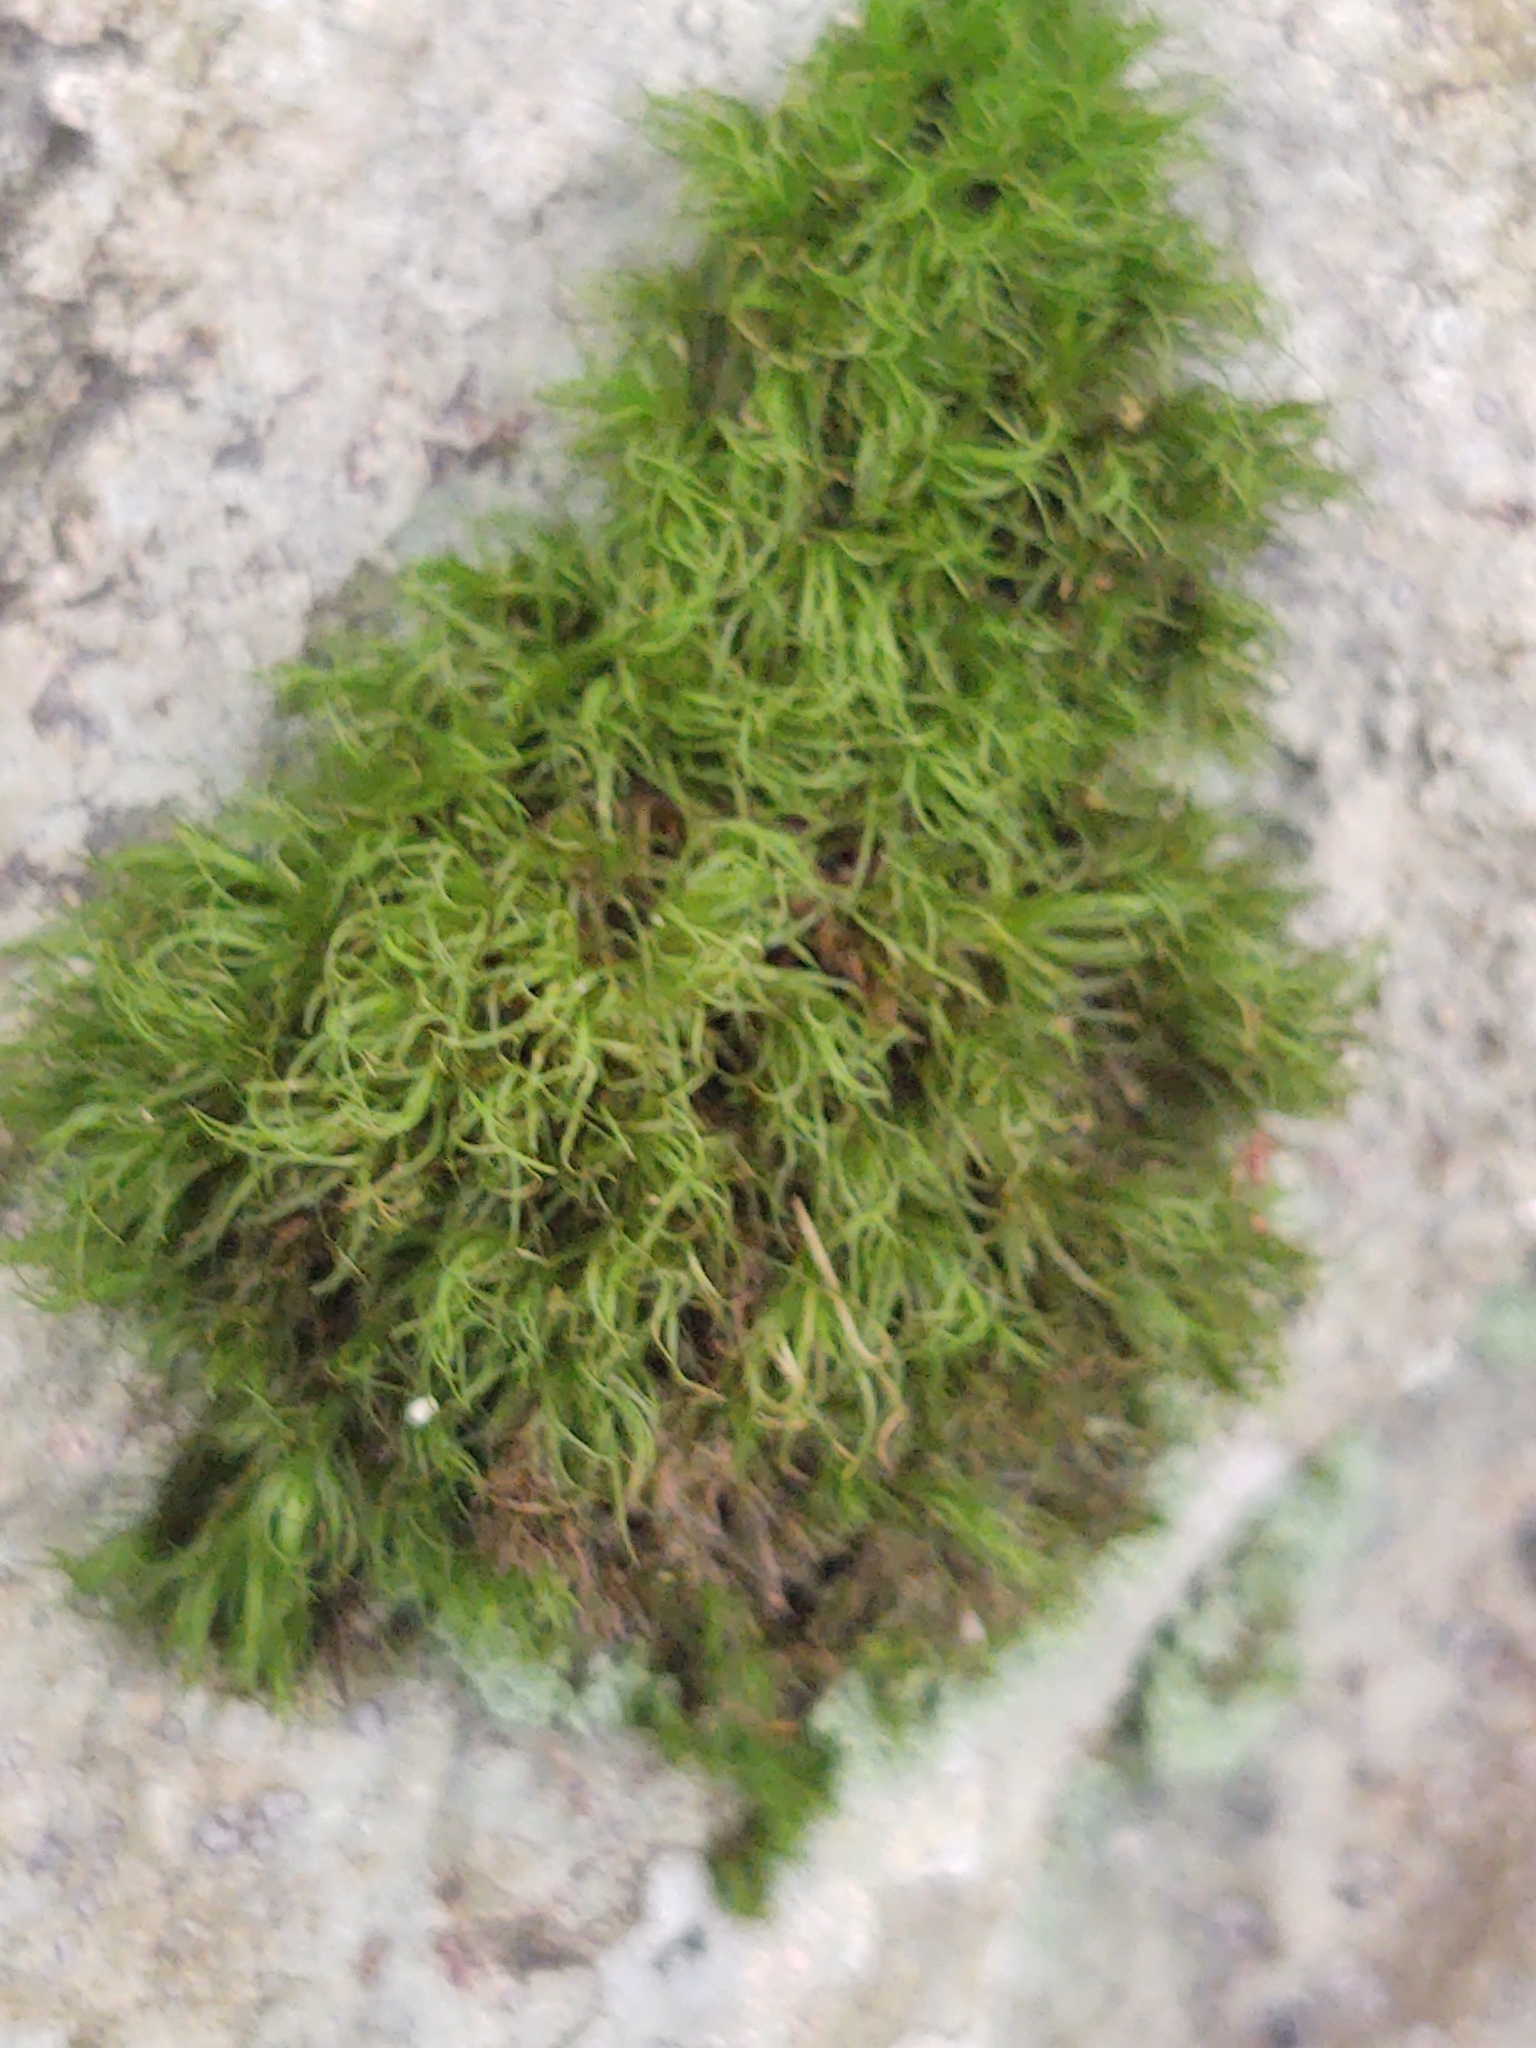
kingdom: Plantae
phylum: Bryophyta
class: Bryopsida
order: Dicranales
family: Dicranaceae
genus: Dicranum
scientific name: Dicranum scoparium
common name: Broom fork-moss
